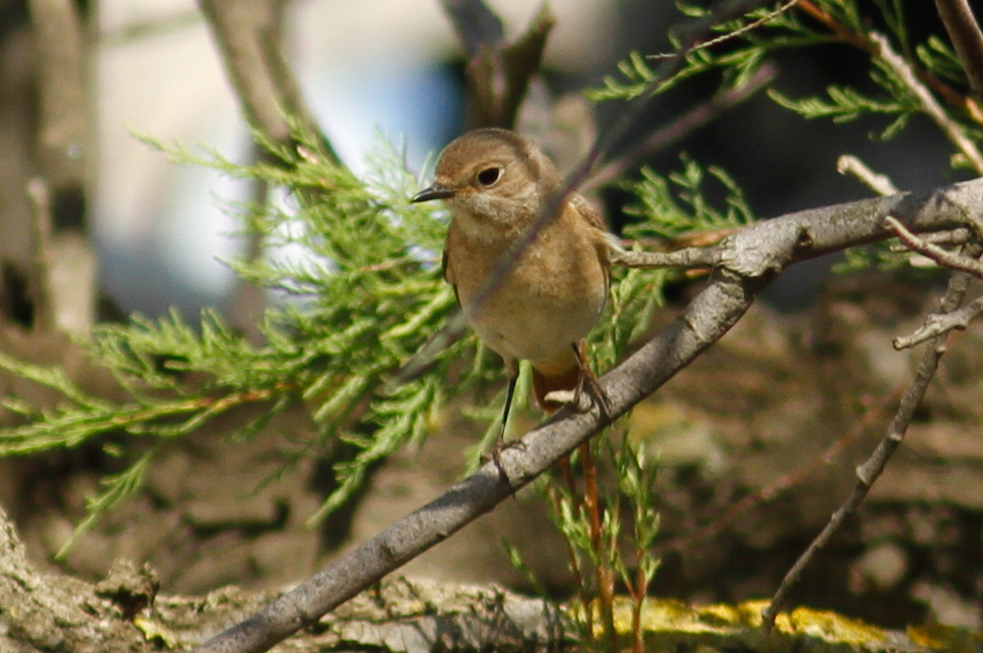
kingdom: Animalia
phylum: Chordata
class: Aves
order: Passeriformes
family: Muscicapidae
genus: Phoenicurus
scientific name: Phoenicurus phoenicurus
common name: Common redstart
